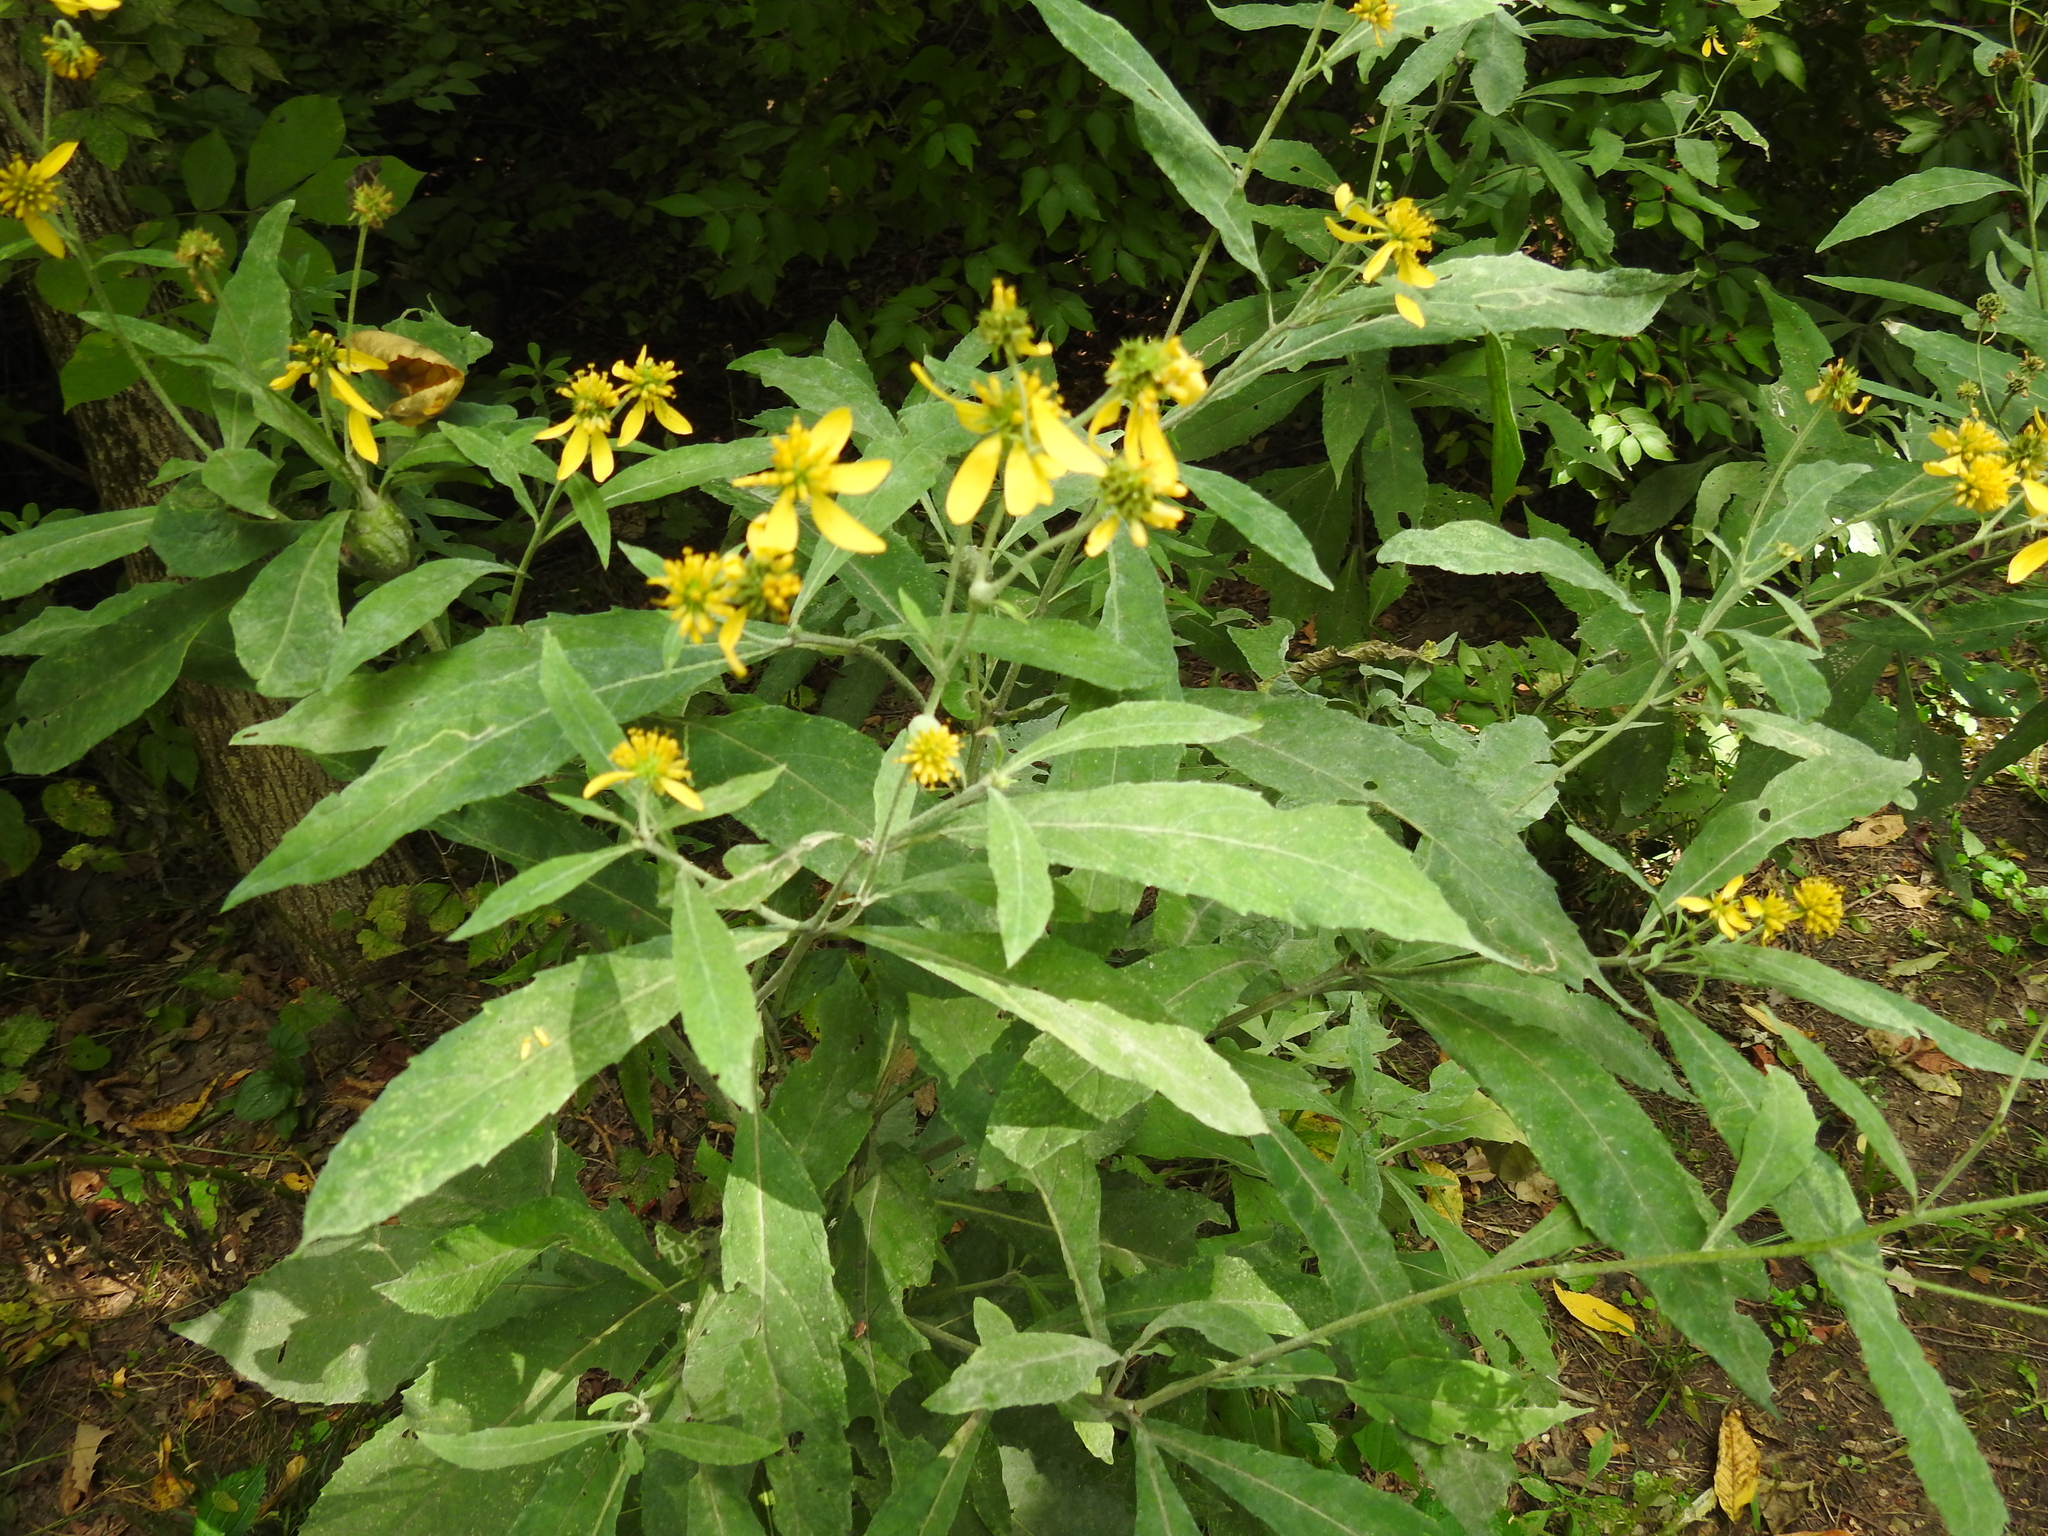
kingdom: Plantae
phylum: Tracheophyta
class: Magnoliopsida
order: Asterales
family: Asteraceae
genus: Verbesina
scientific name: Verbesina alternifolia
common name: Wingstem
